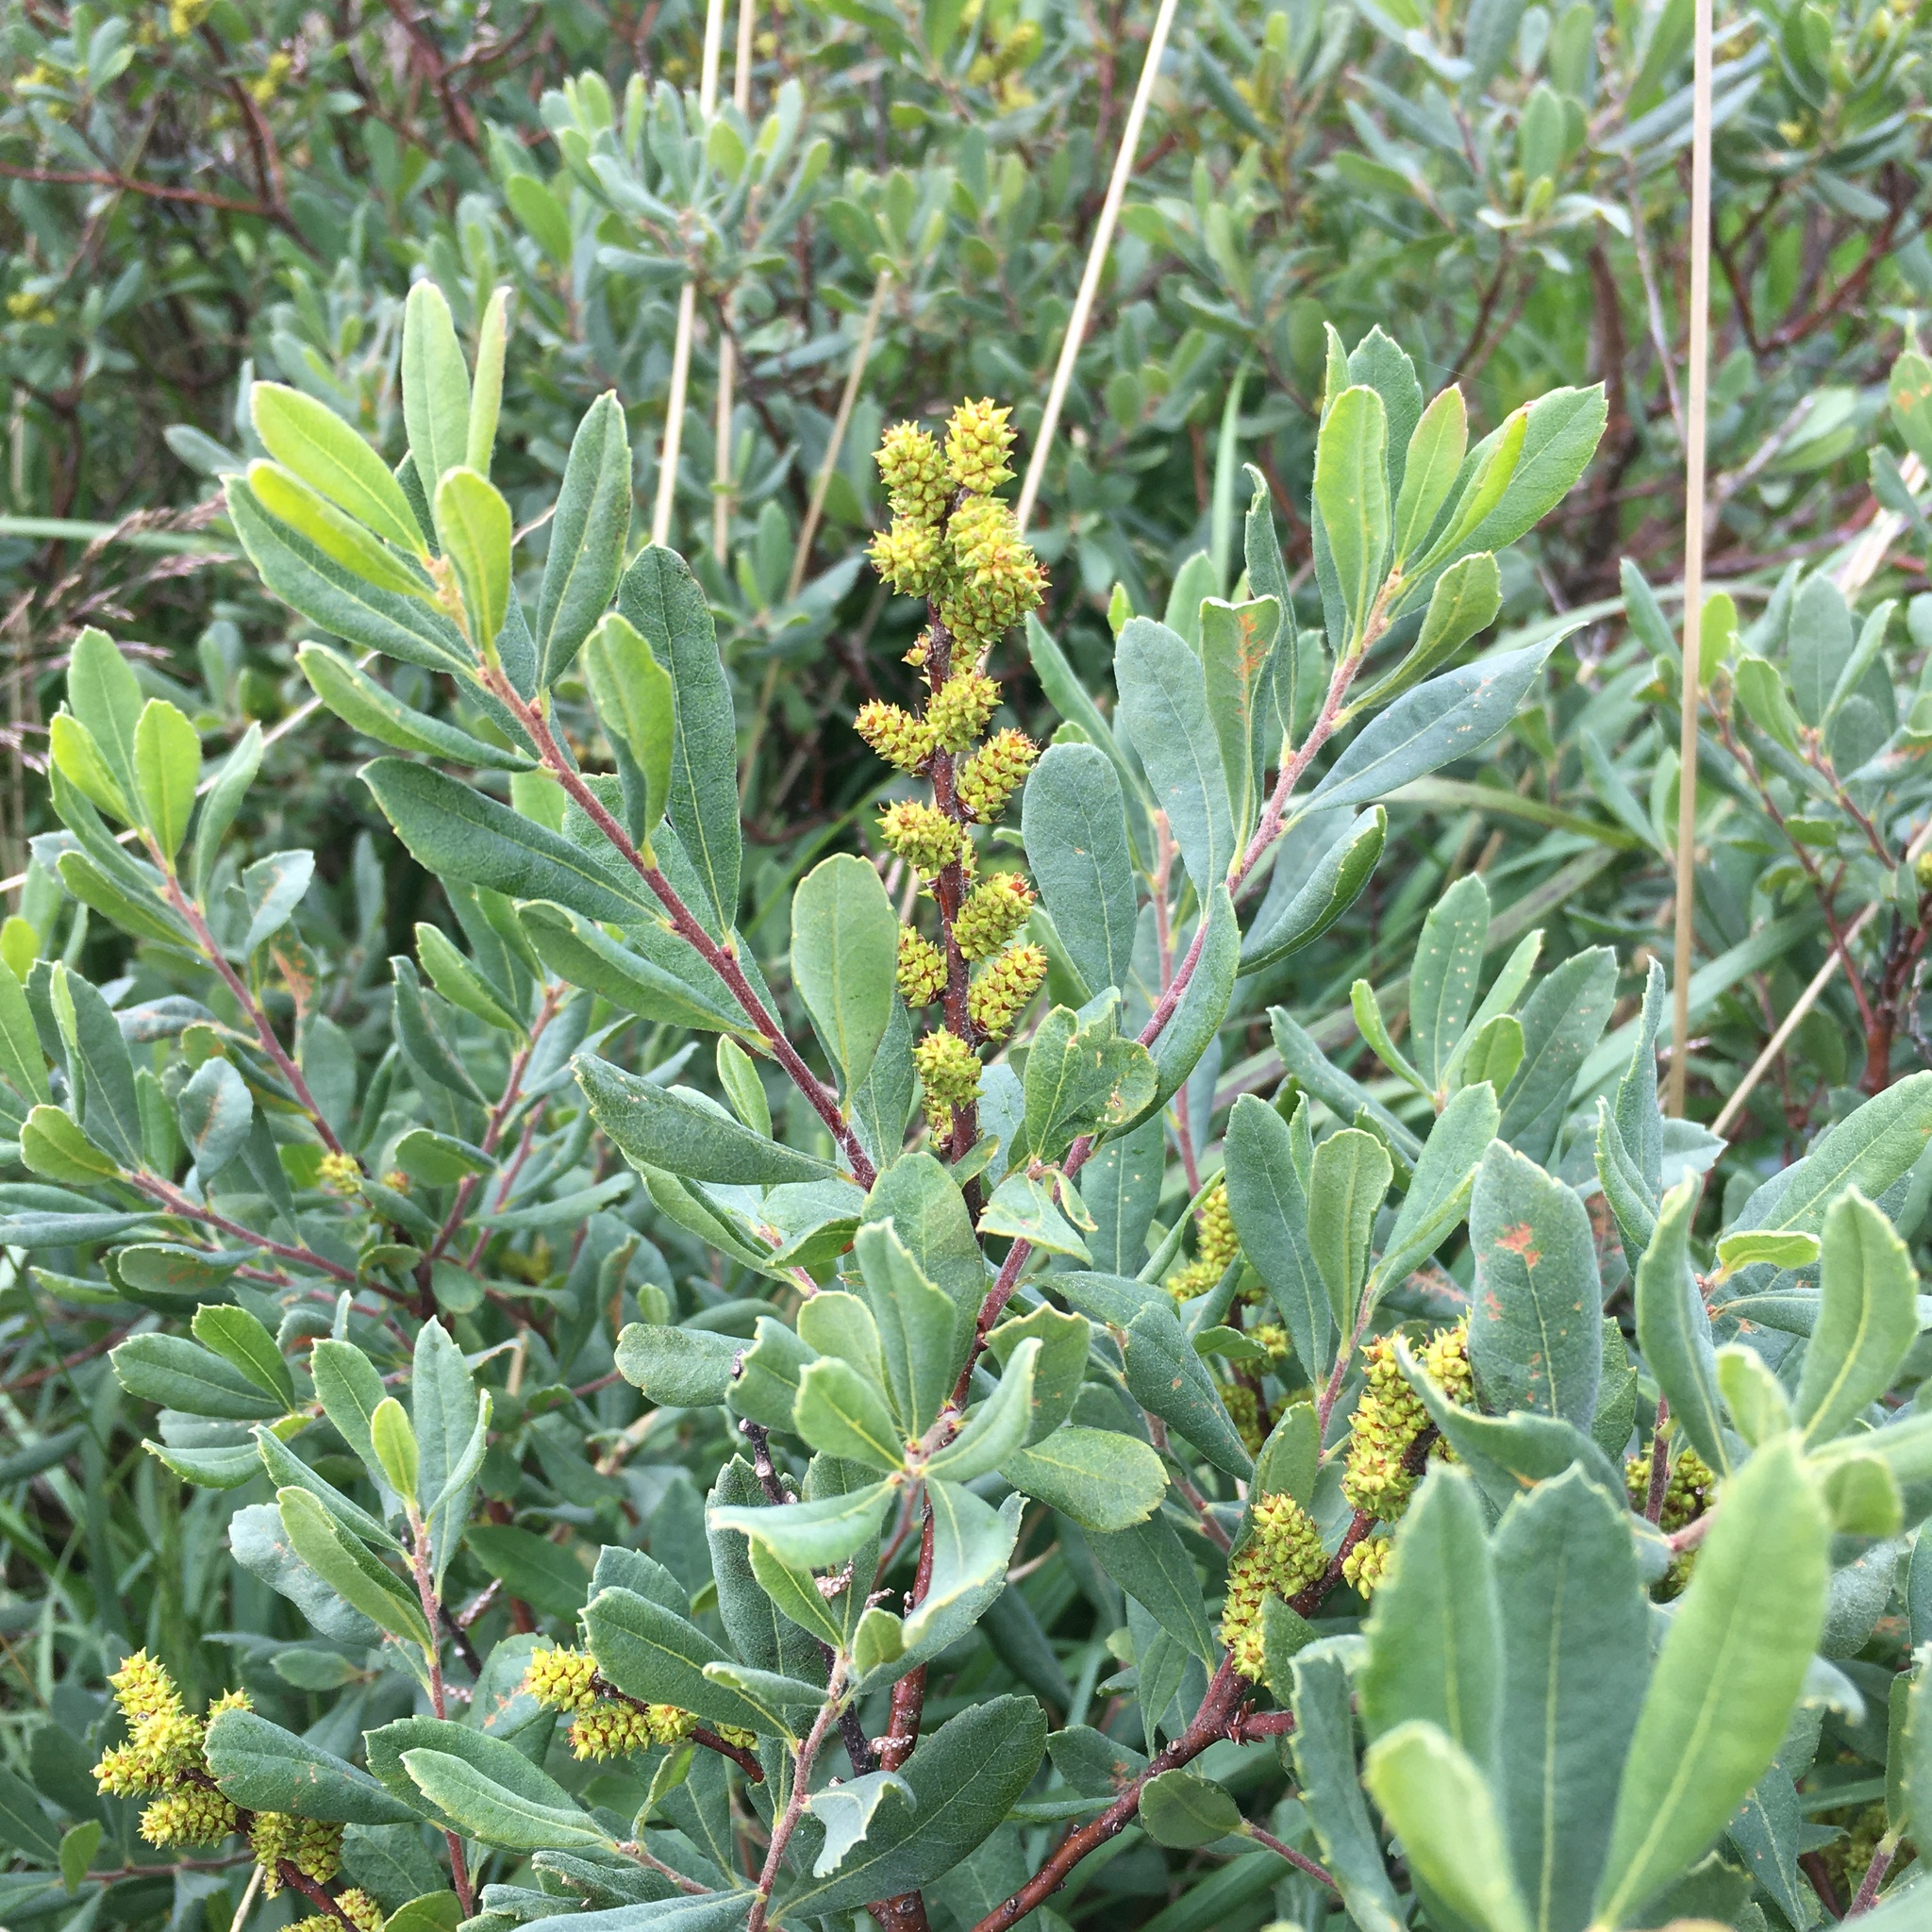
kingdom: Plantae
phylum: Tracheophyta
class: Magnoliopsida
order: Fagales
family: Myricaceae
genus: Myrica
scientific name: Myrica gale
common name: Sweet gale
